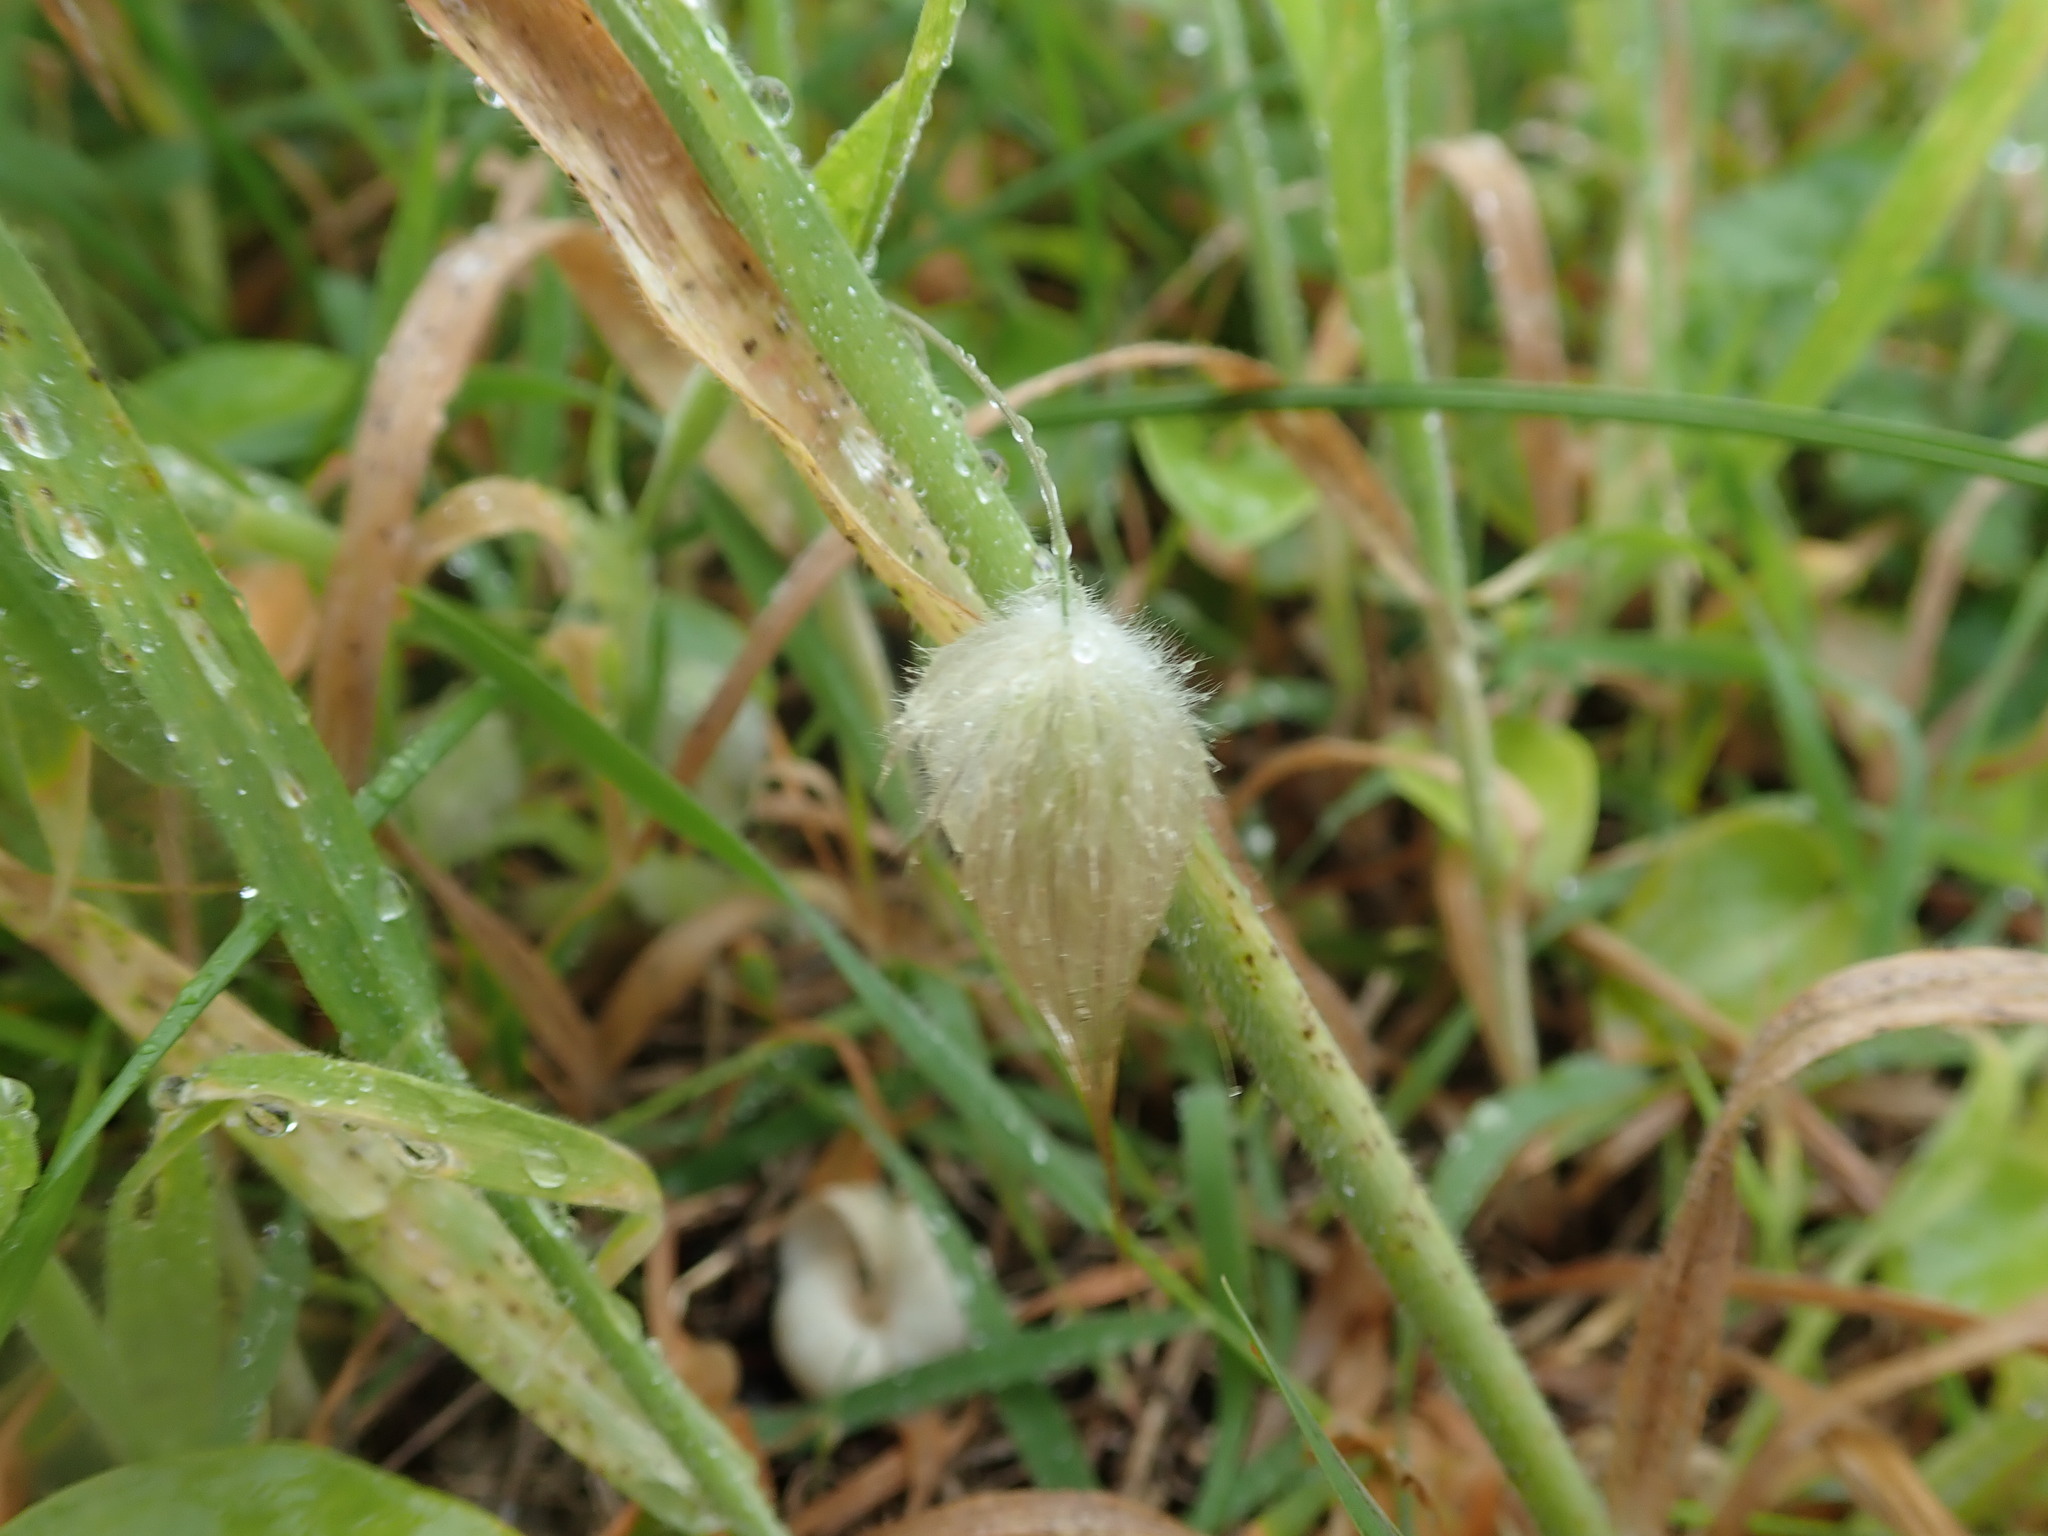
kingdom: Plantae
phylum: Tracheophyta
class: Liliopsida
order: Poales
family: Poaceae
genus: Lagurus
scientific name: Lagurus ovatus
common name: Hare's-tail
